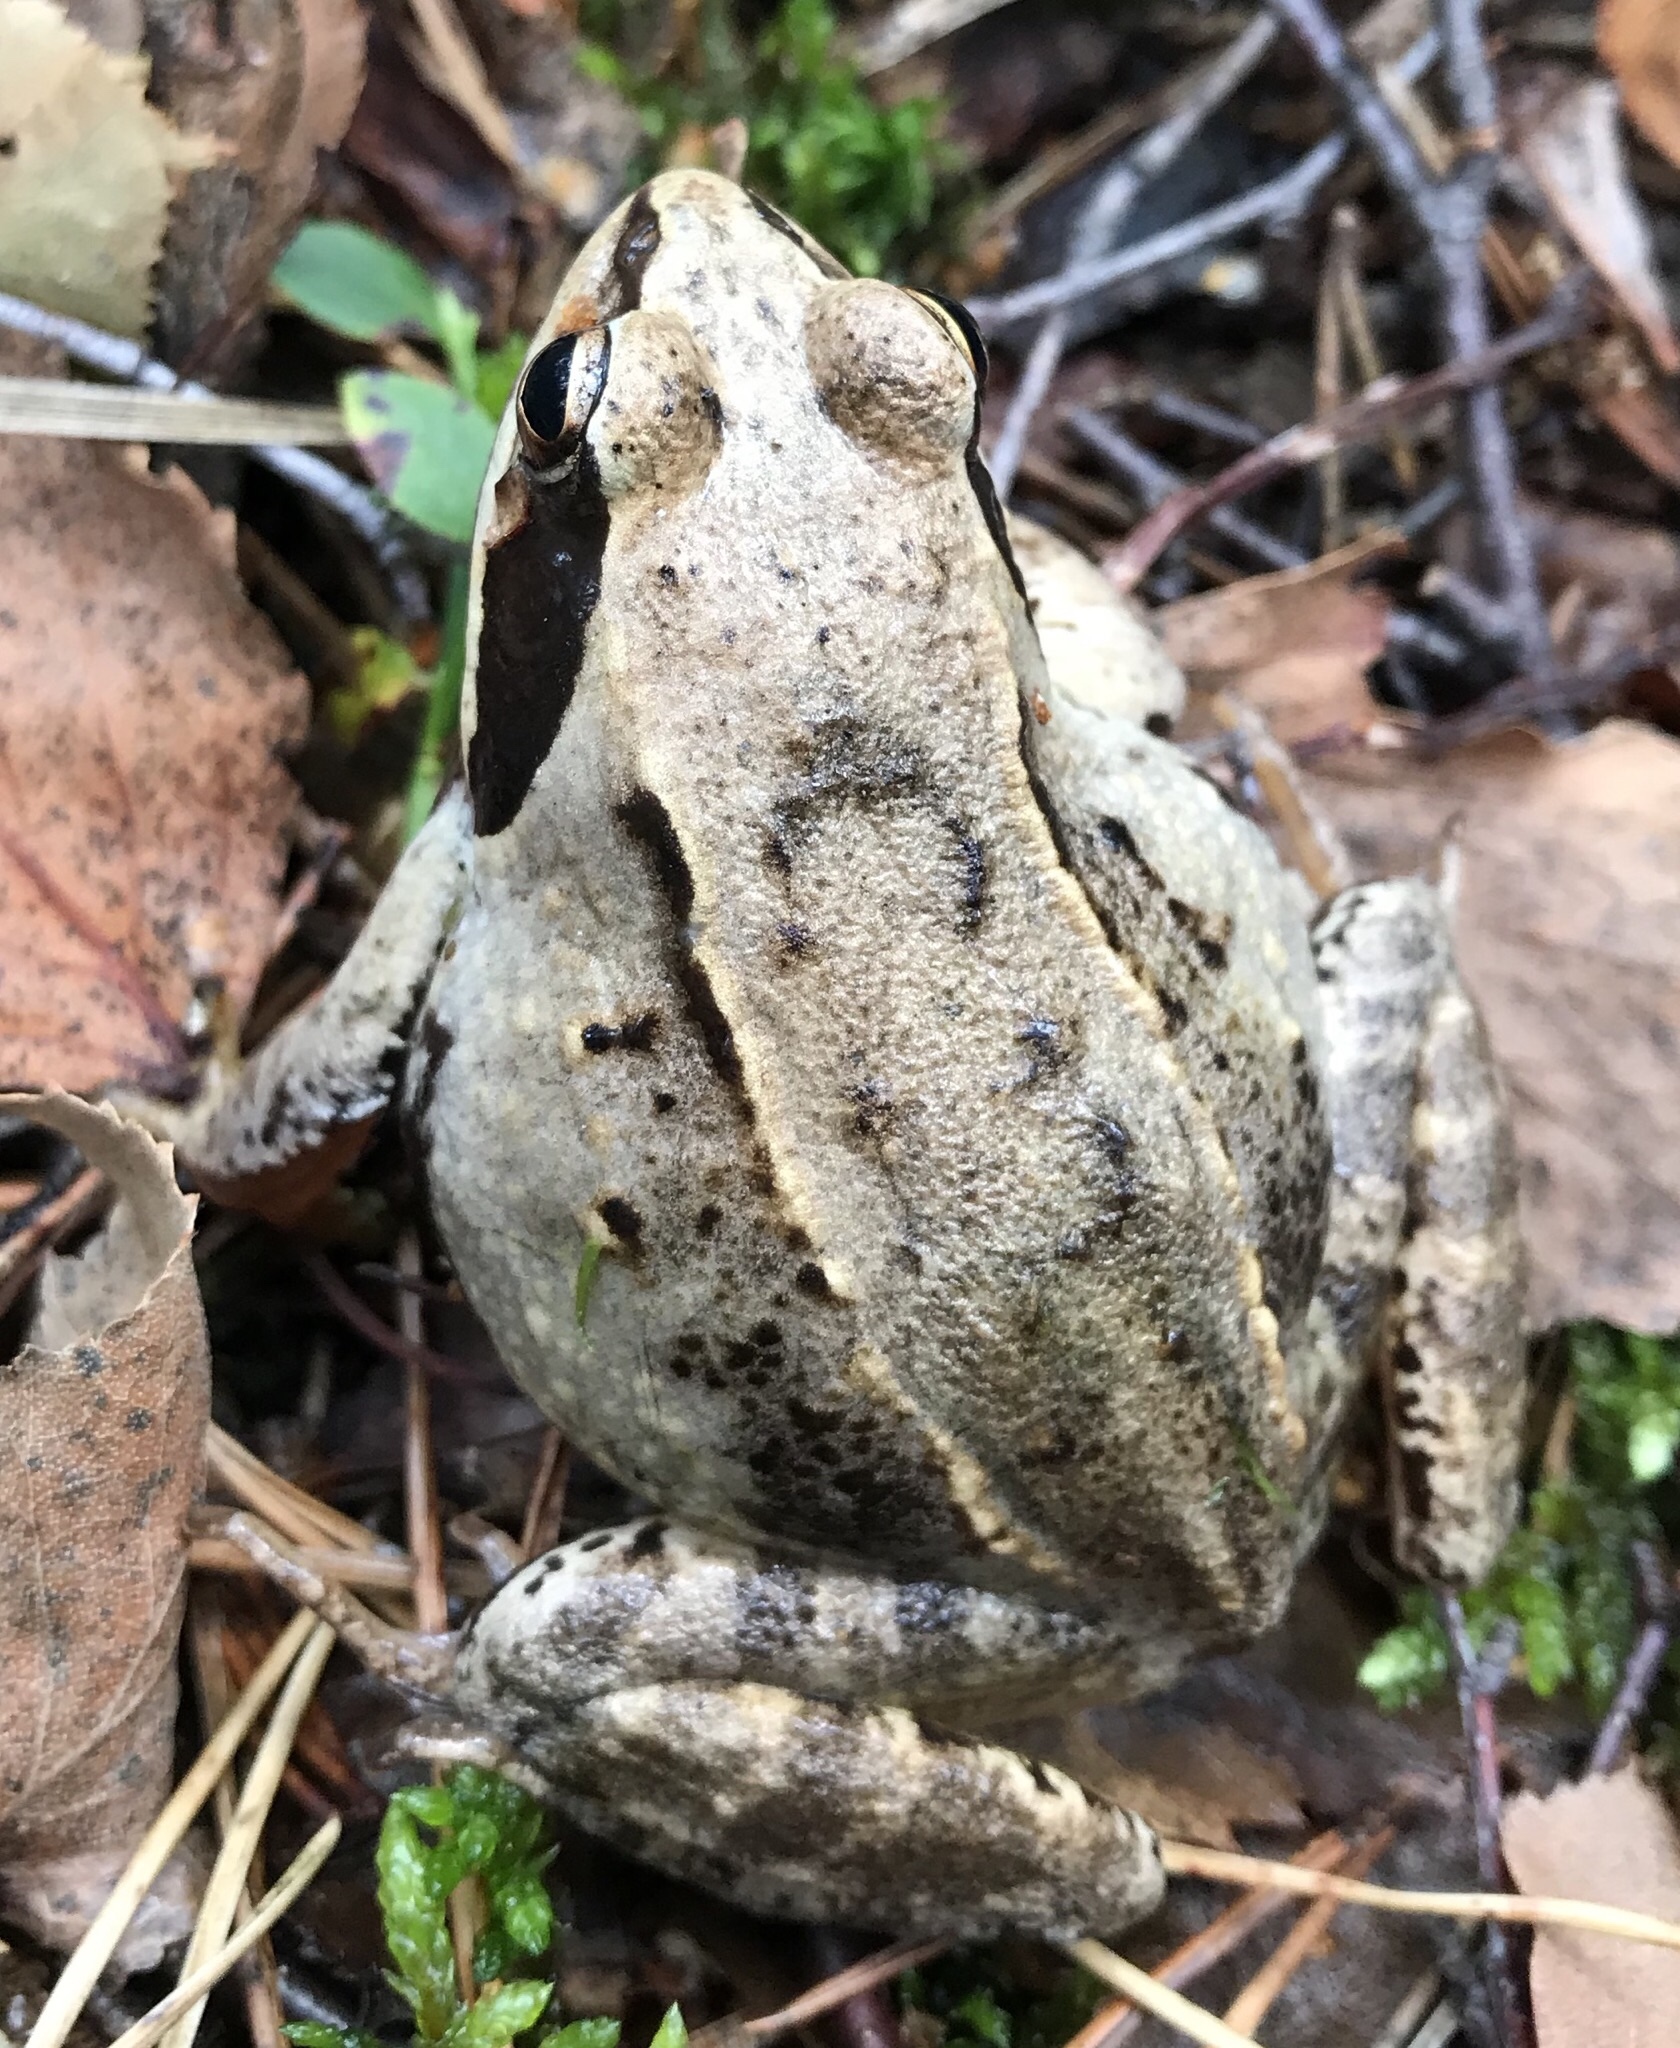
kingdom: Animalia
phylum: Chordata
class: Amphibia
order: Anura
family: Ranidae
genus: Rana
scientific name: Rana arvalis
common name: Moor frog
